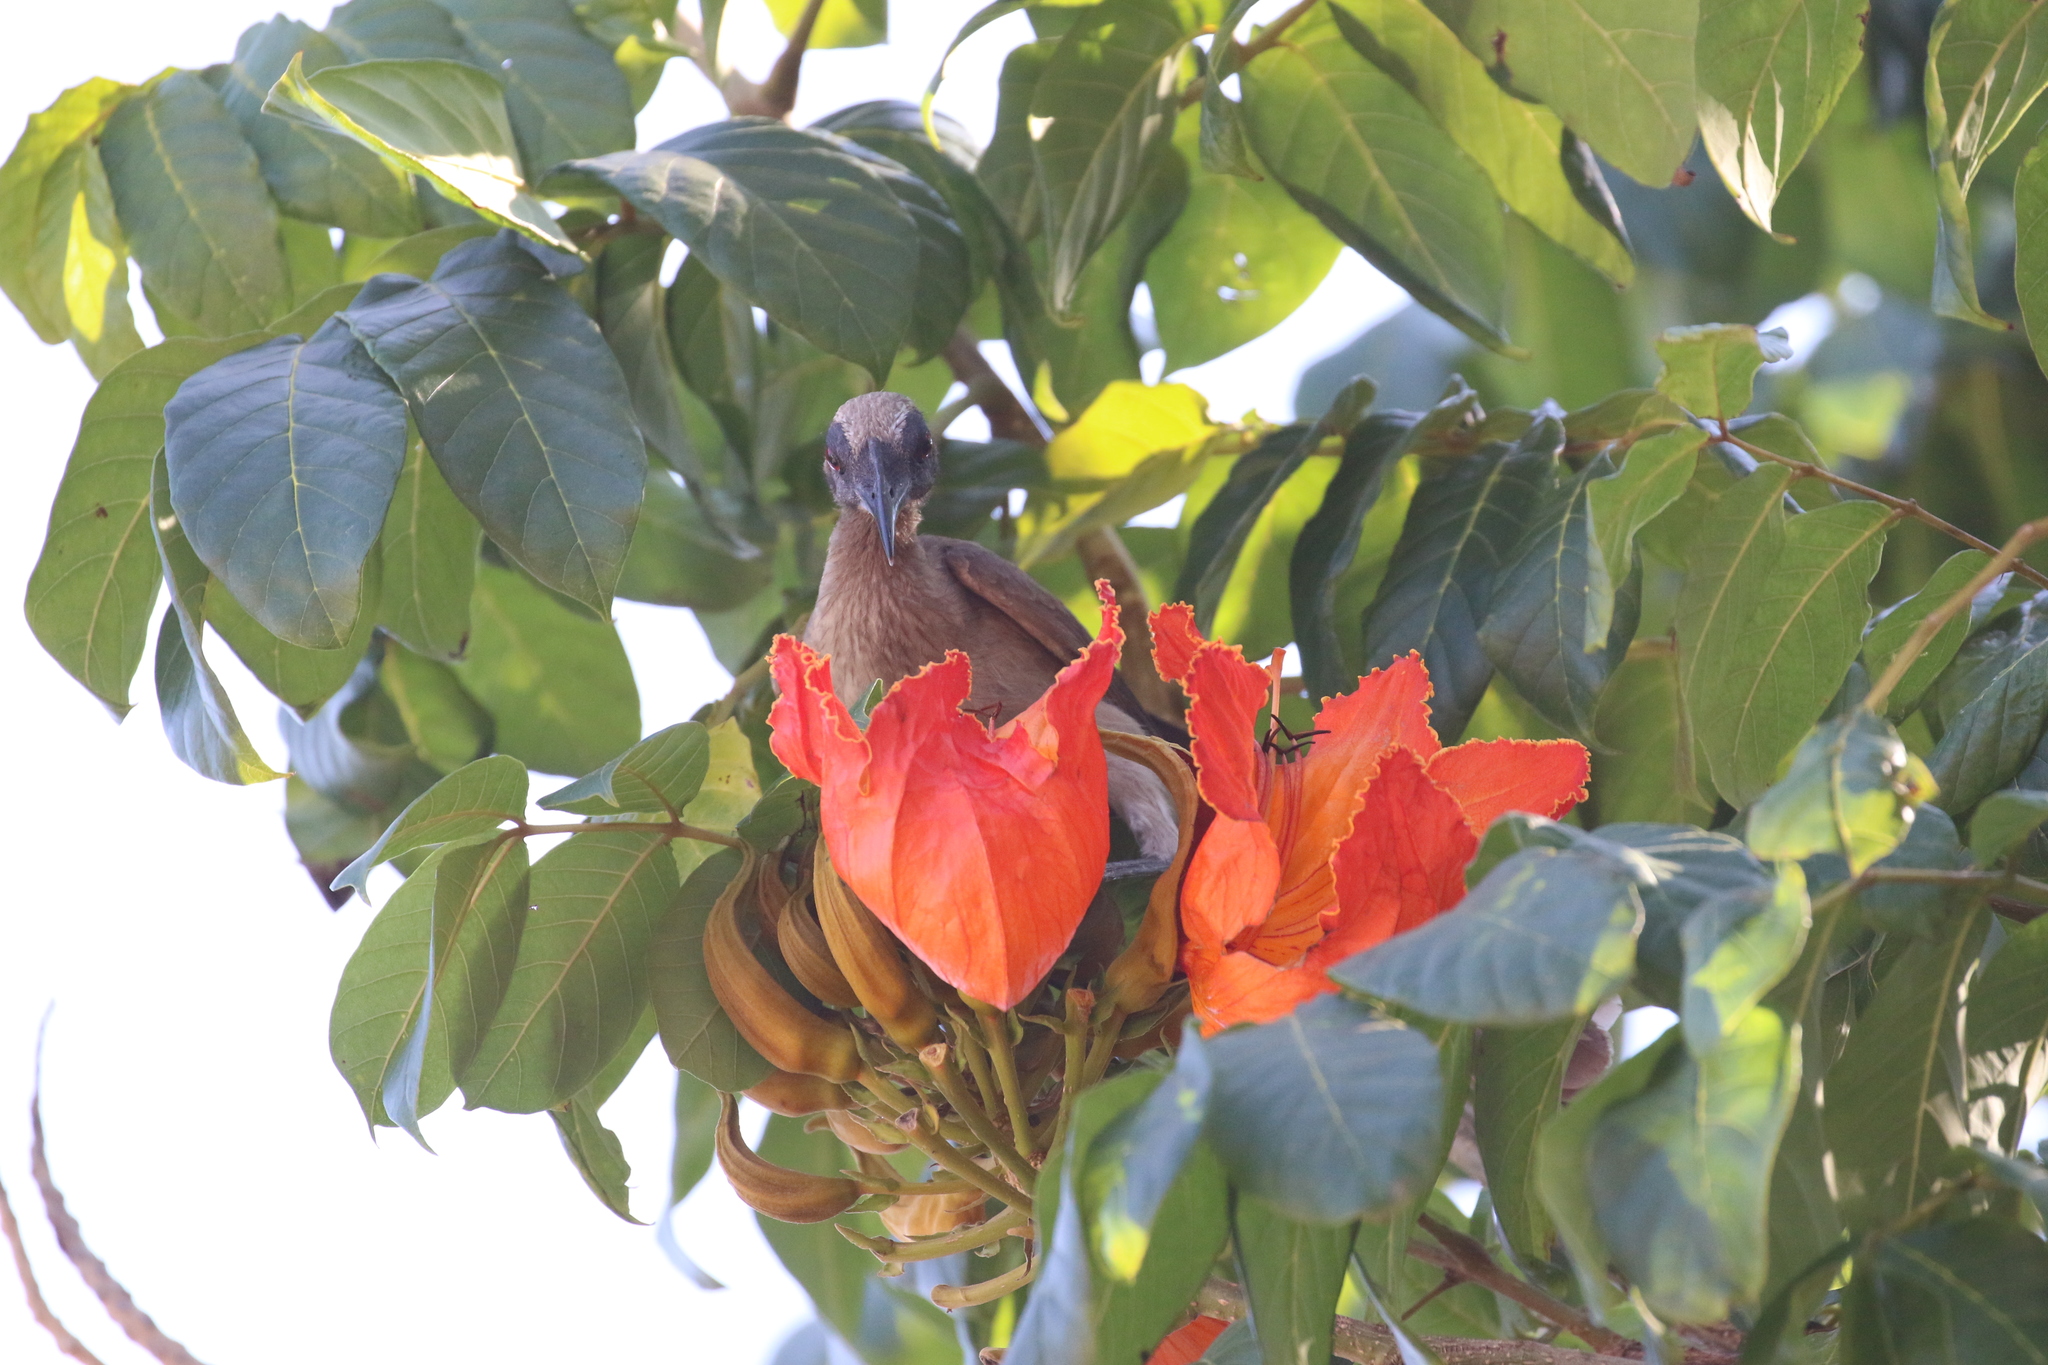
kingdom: Plantae
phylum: Tracheophyta
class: Magnoliopsida
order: Lamiales
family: Bignoniaceae
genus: Spathodea
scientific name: Spathodea campanulata
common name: African tuliptree
